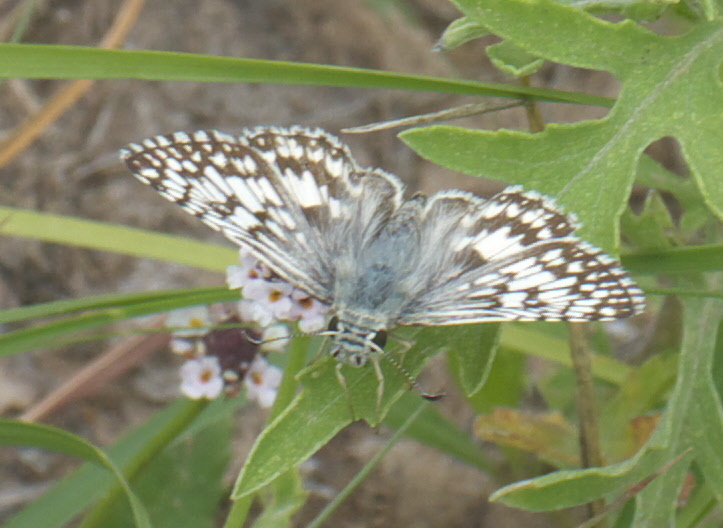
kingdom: Animalia
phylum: Arthropoda
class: Insecta
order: Lepidoptera
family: Hesperiidae
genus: Burnsius
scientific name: Burnsius communis
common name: Common checkered-skipper
